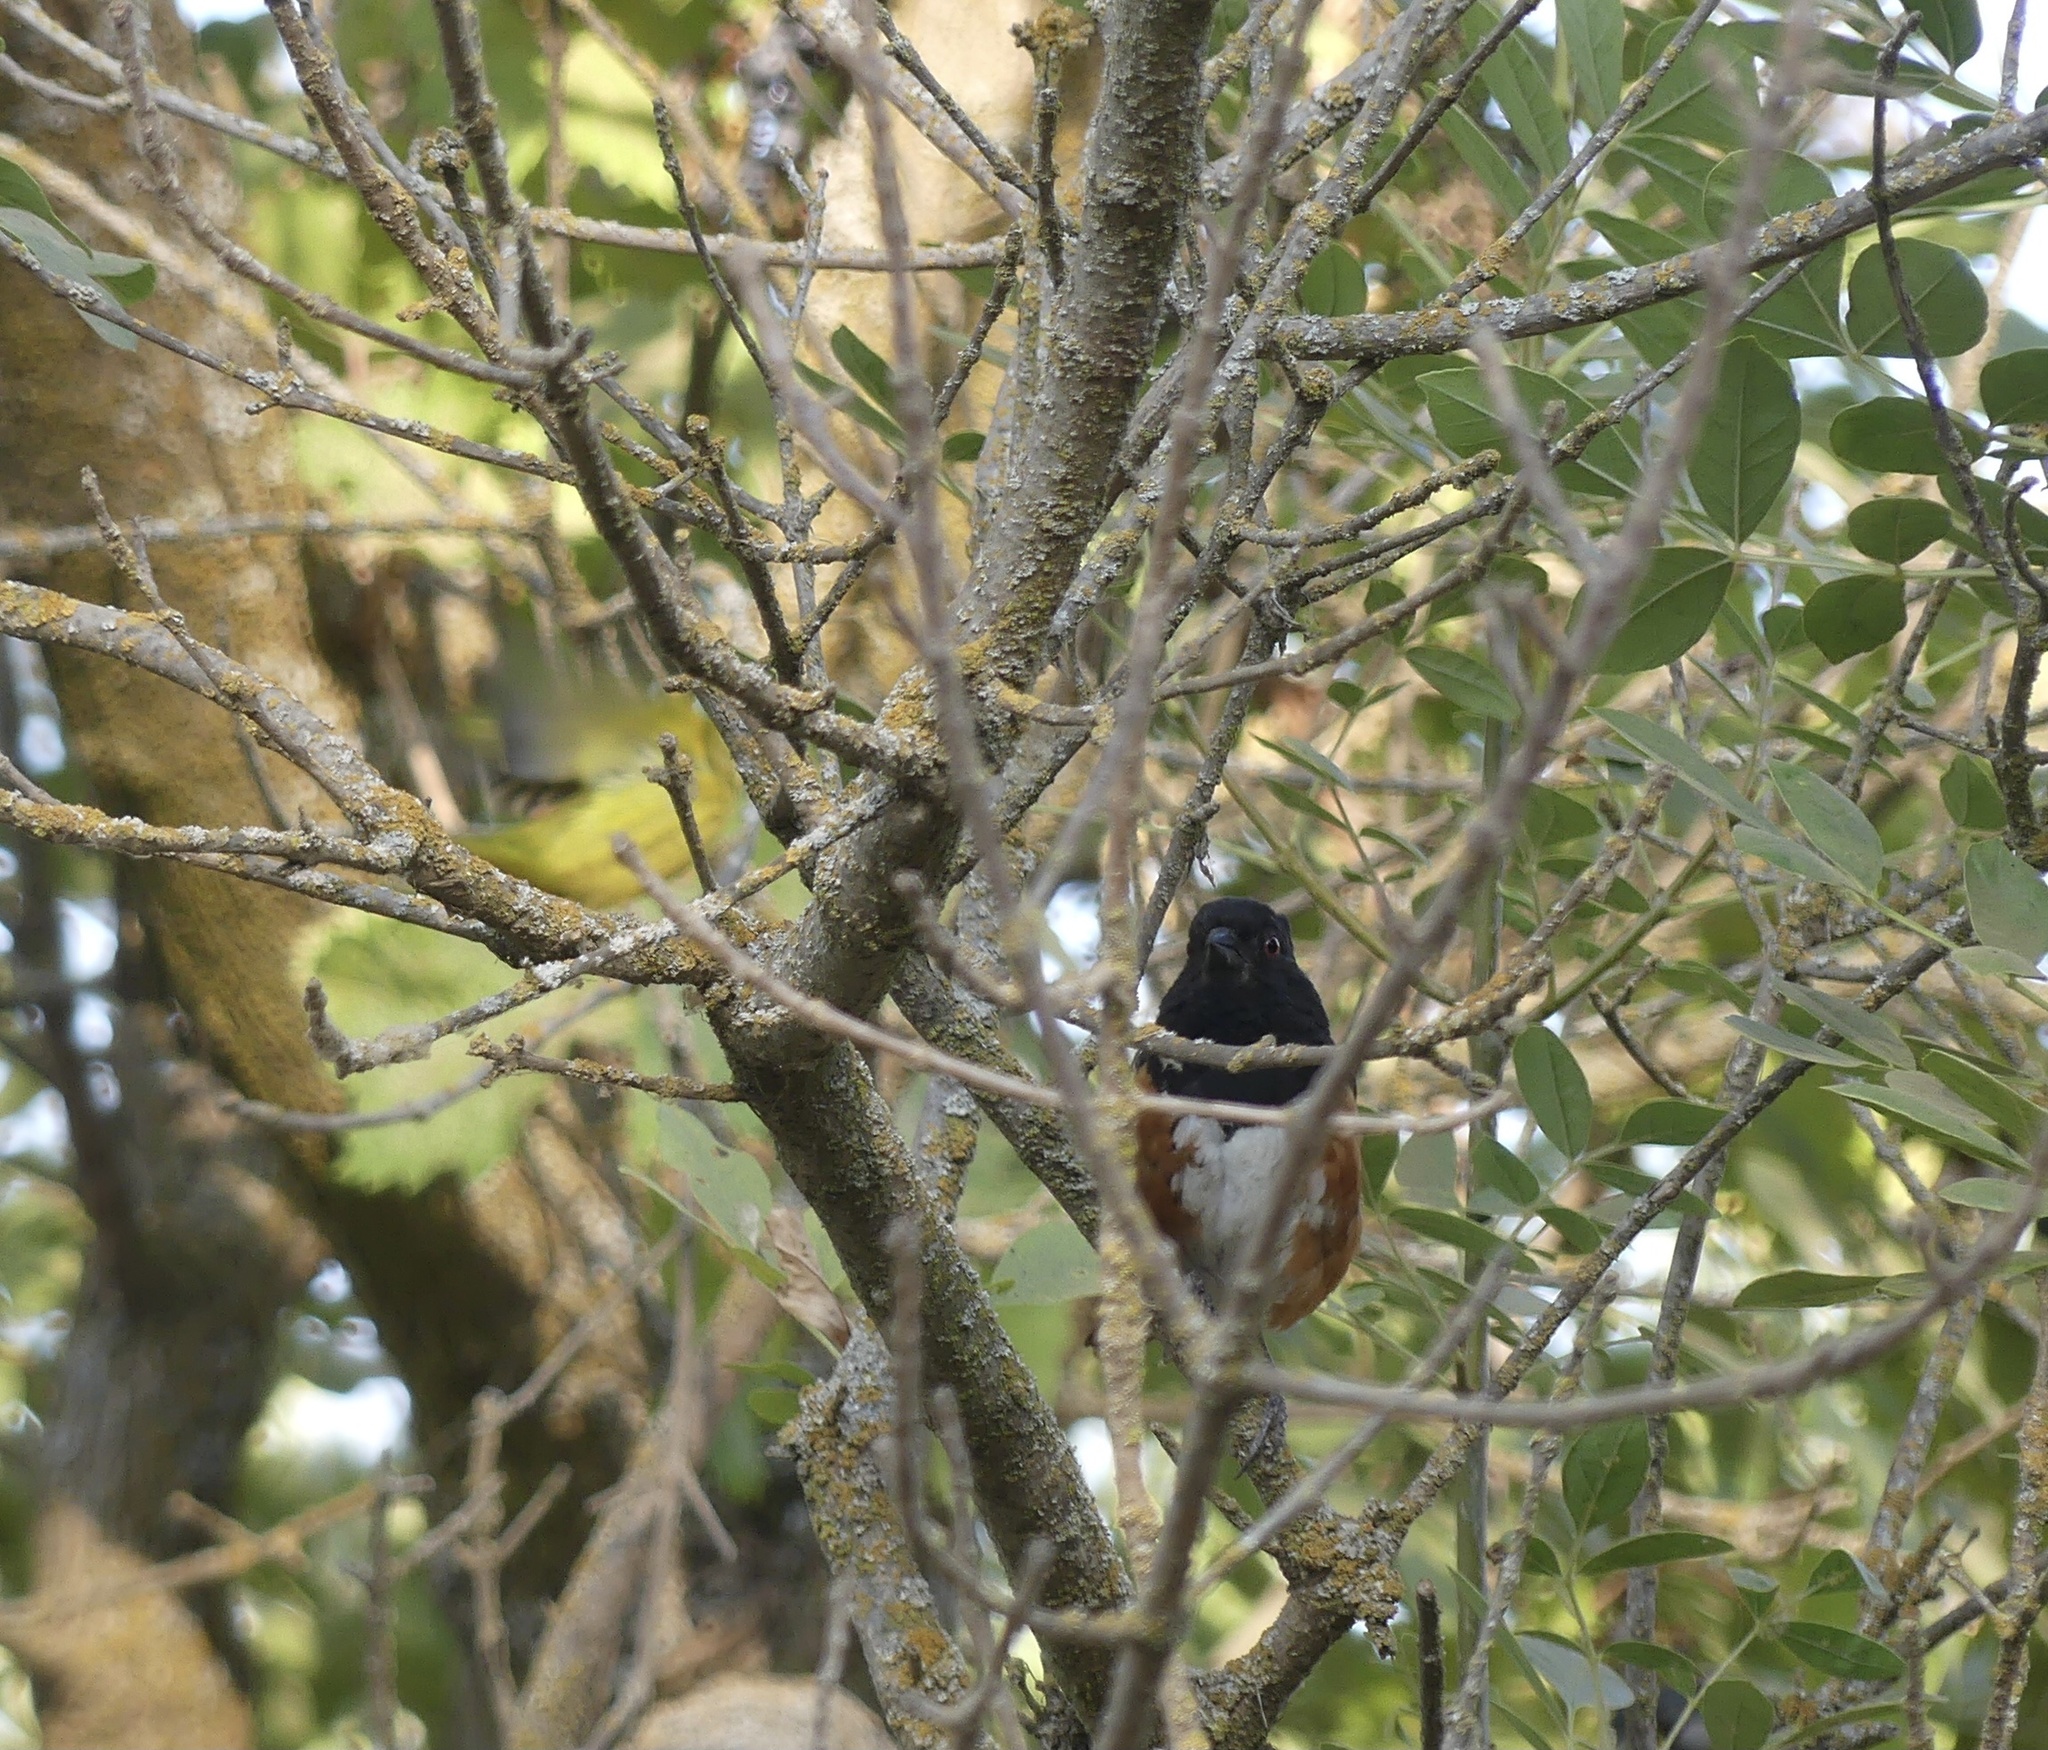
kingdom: Animalia
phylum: Chordata
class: Aves
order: Passeriformes
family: Passerellidae
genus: Pipilo
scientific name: Pipilo maculatus
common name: Spotted towhee
